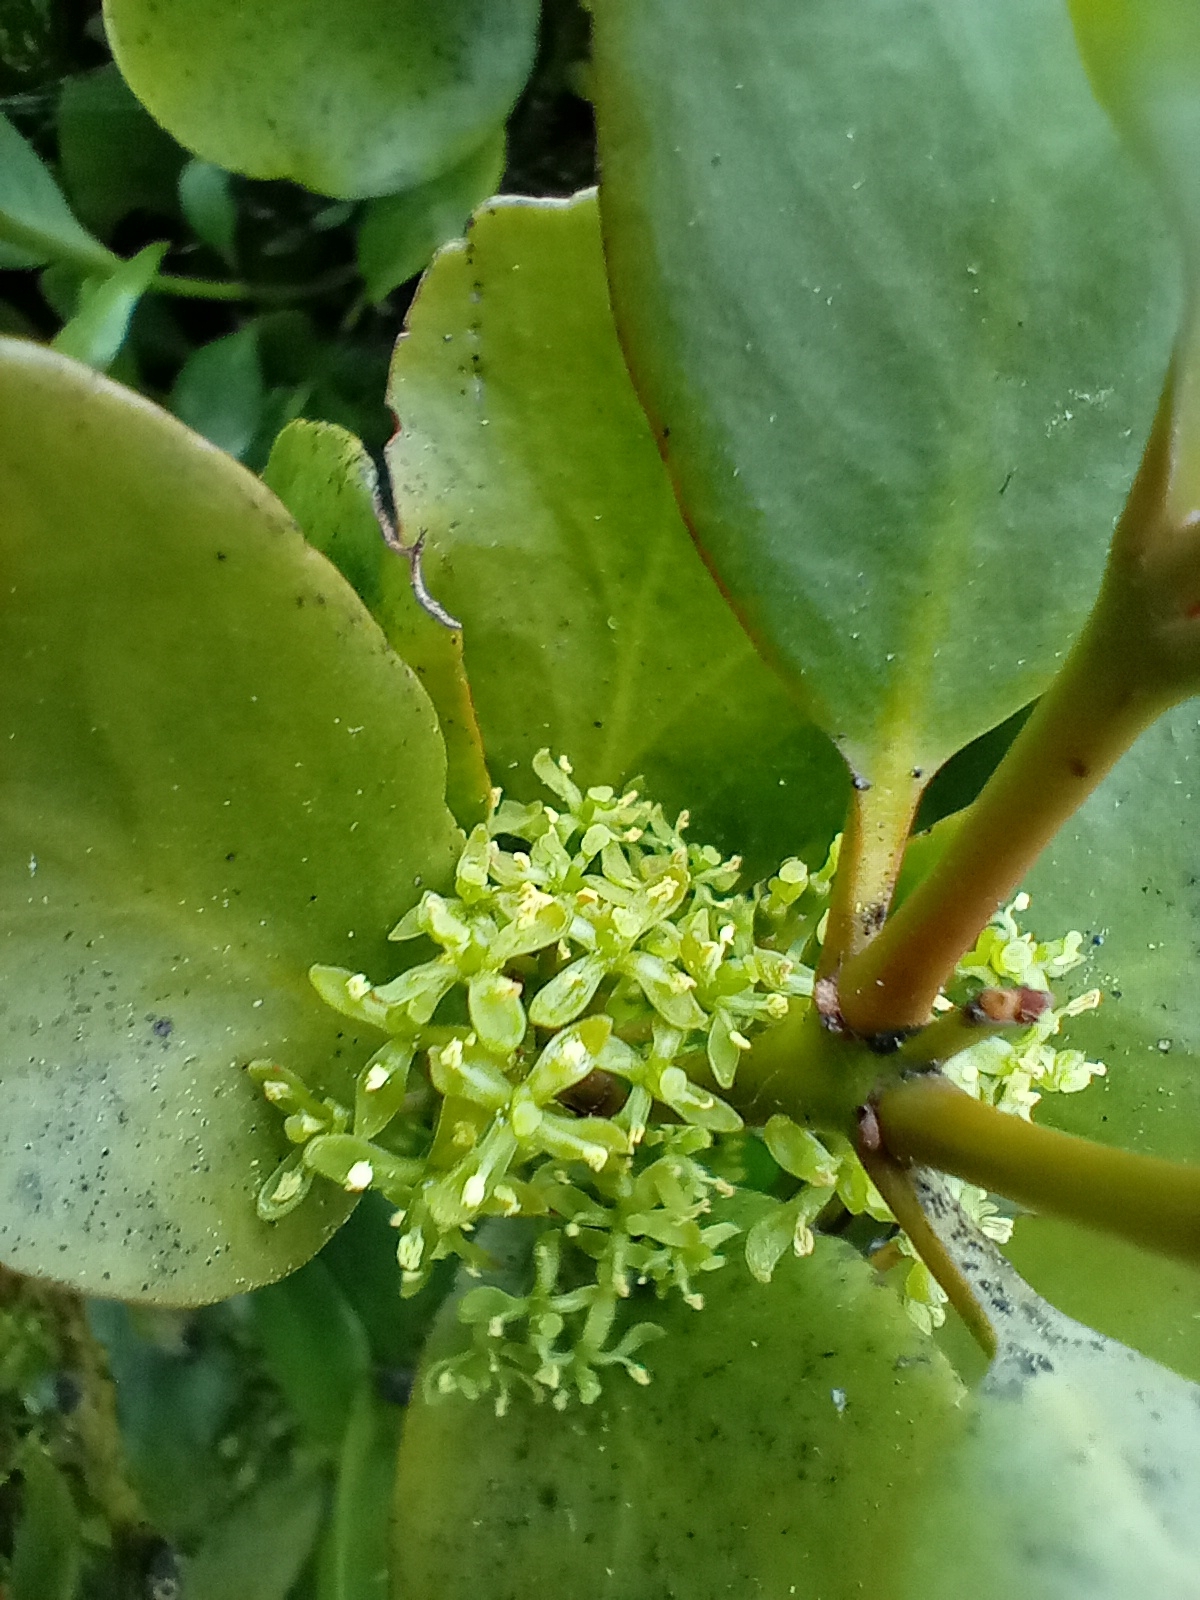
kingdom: Plantae
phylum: Tracheophyta
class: Magnoliopsida
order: Santalales
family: Loranthaceae
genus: Ileostylus
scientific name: Ileostylus micranthus
